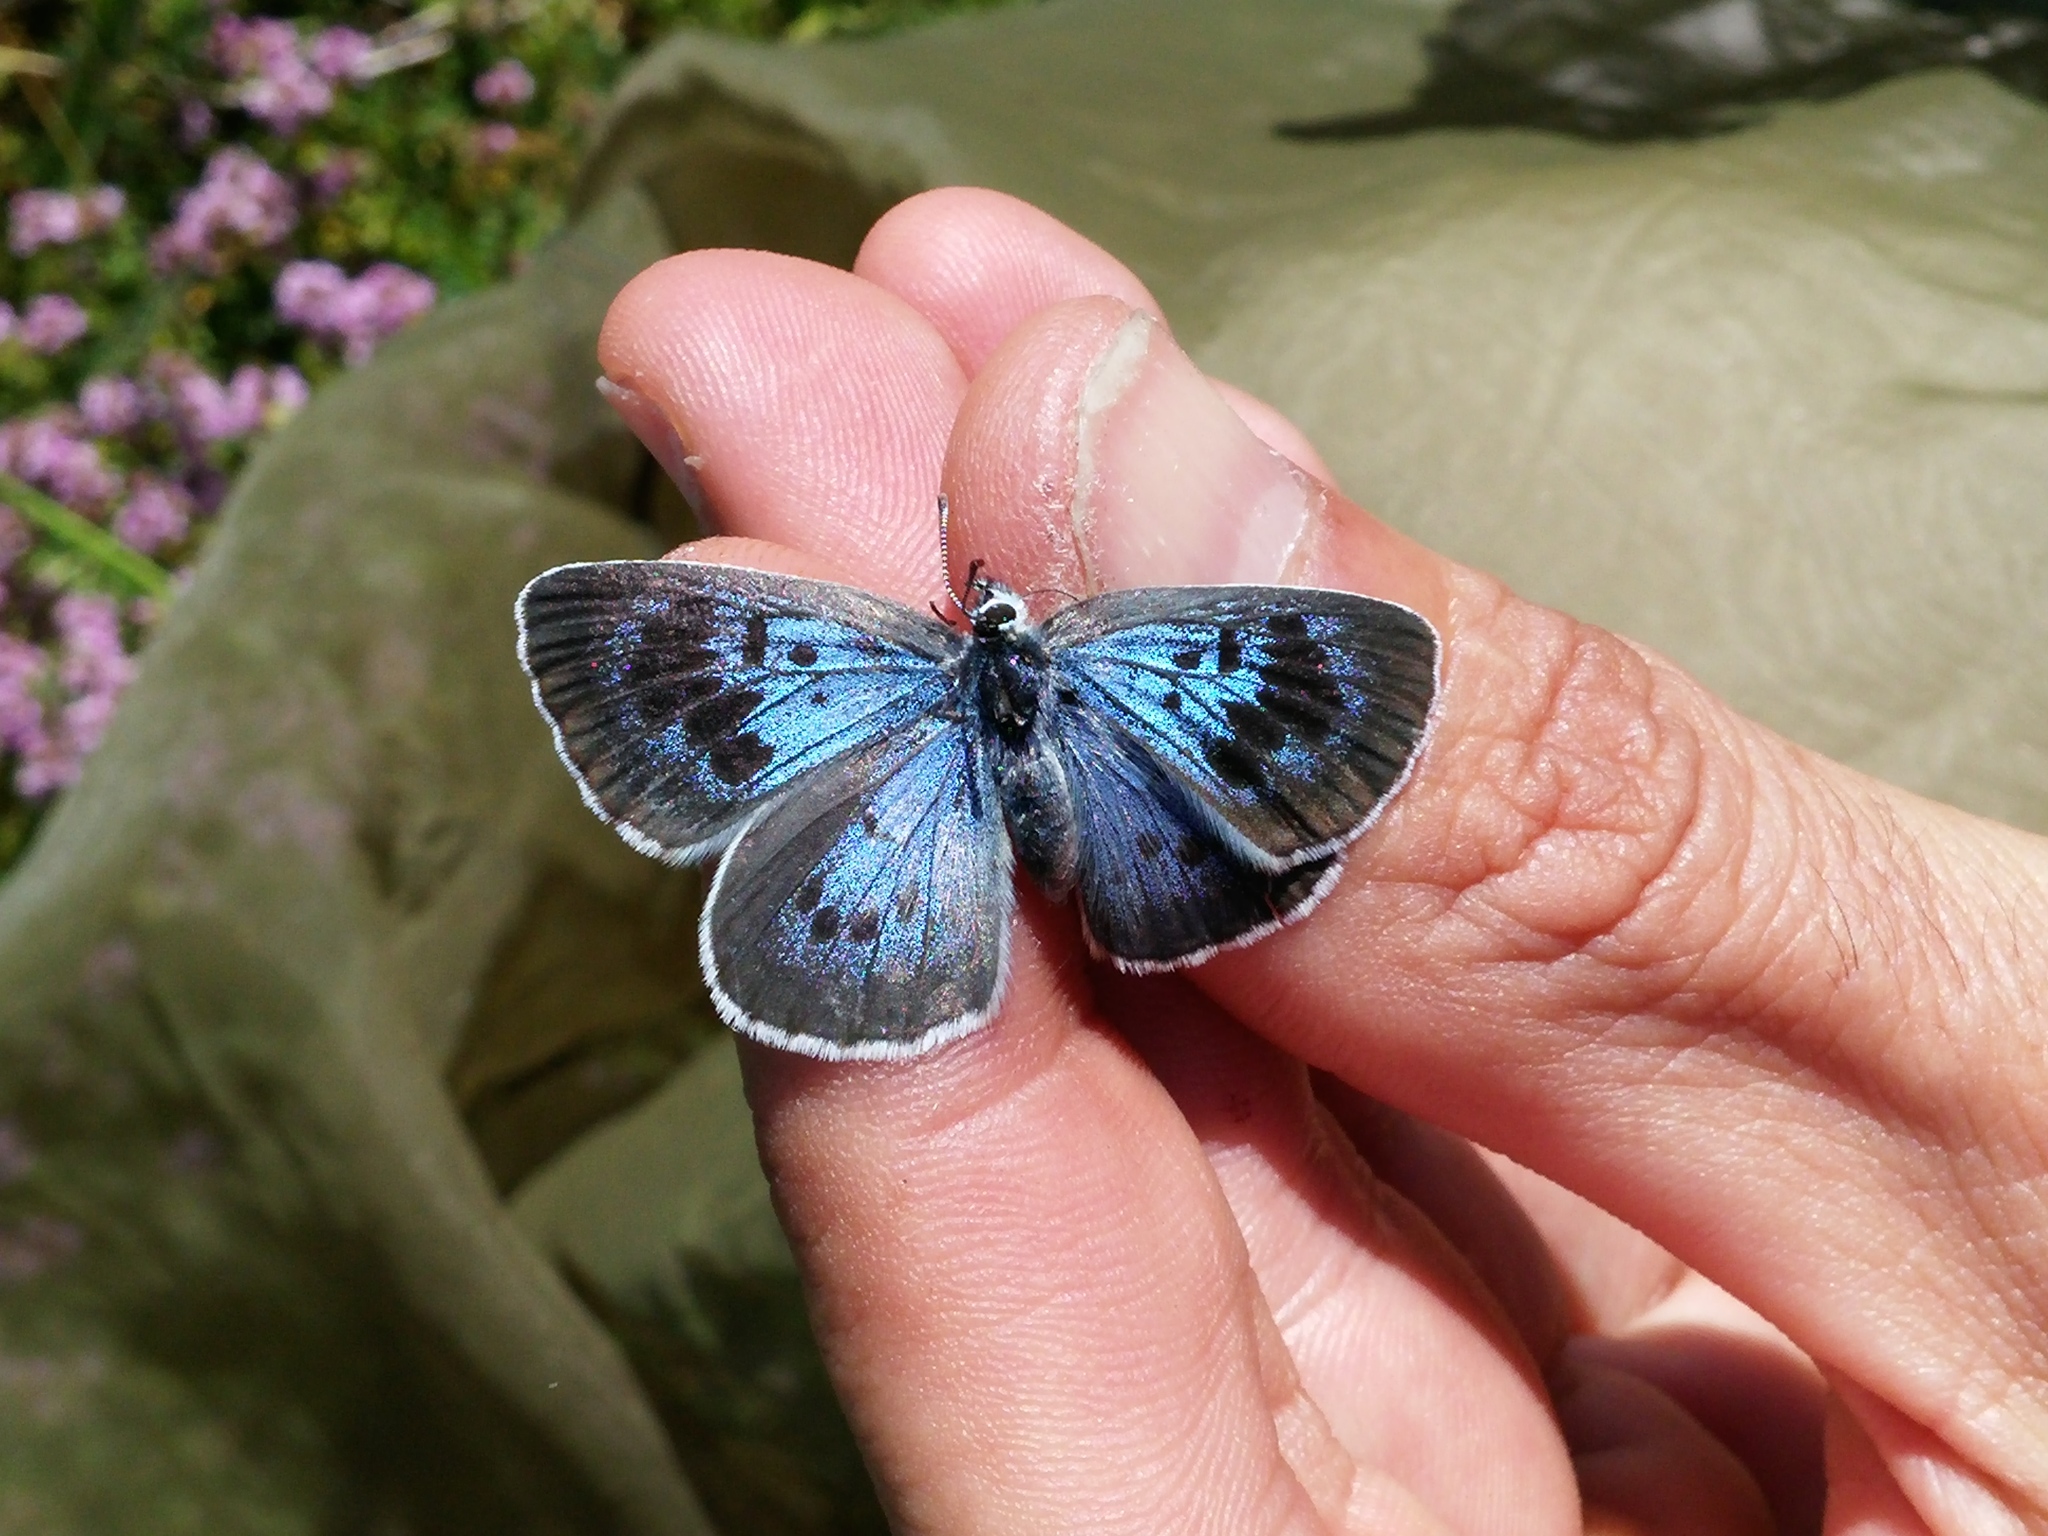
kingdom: Animalia
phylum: Arthropoda
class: Insecta
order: Lepidoptera
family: Lycaenidae
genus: Maculinea
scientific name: Maculinea arion
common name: Large blue
